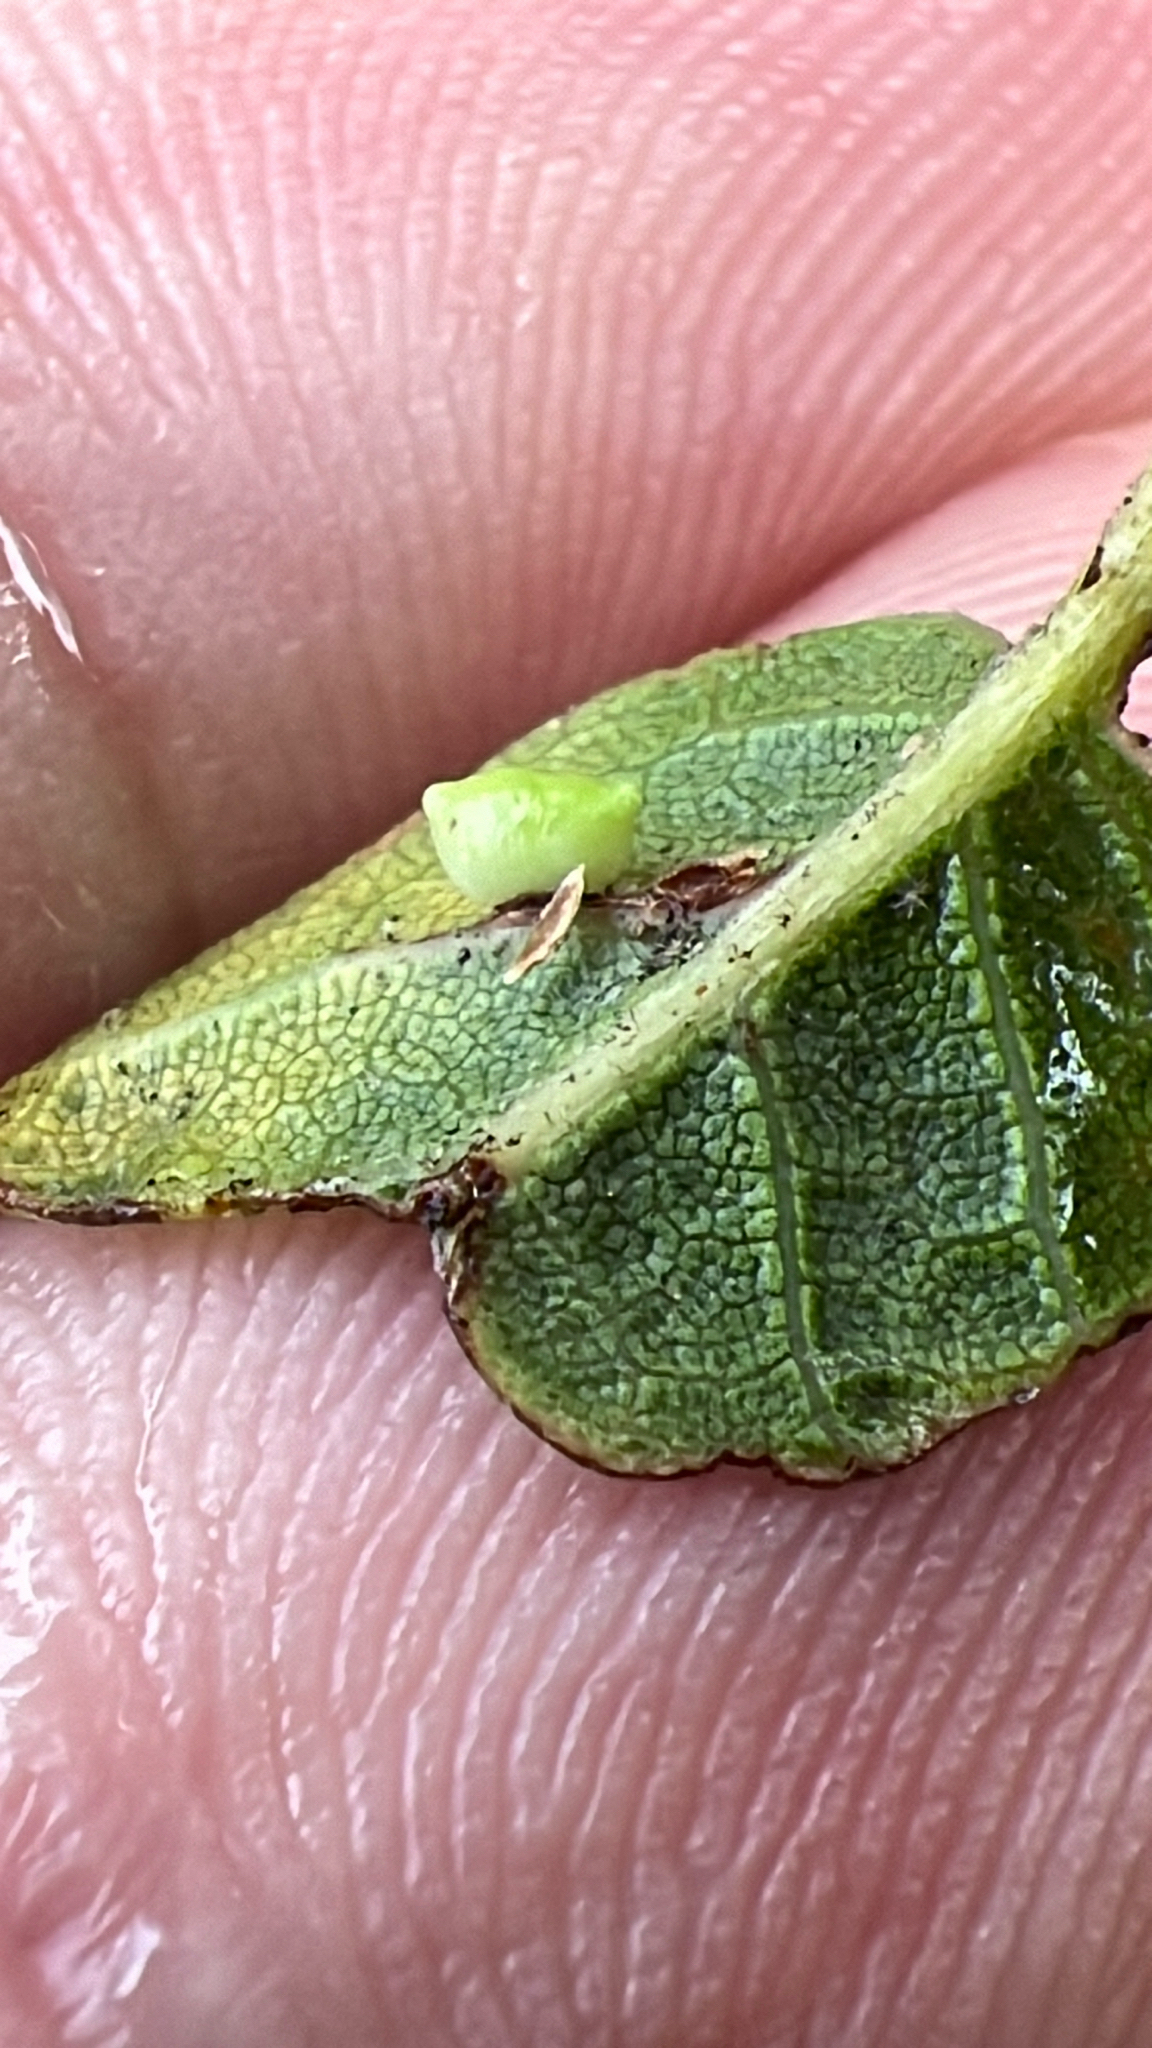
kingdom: Animalia
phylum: Arthropoda
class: Insecta
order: Hymenoptera
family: Cynipidae
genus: Dryocosmus
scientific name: Dryocosmus
